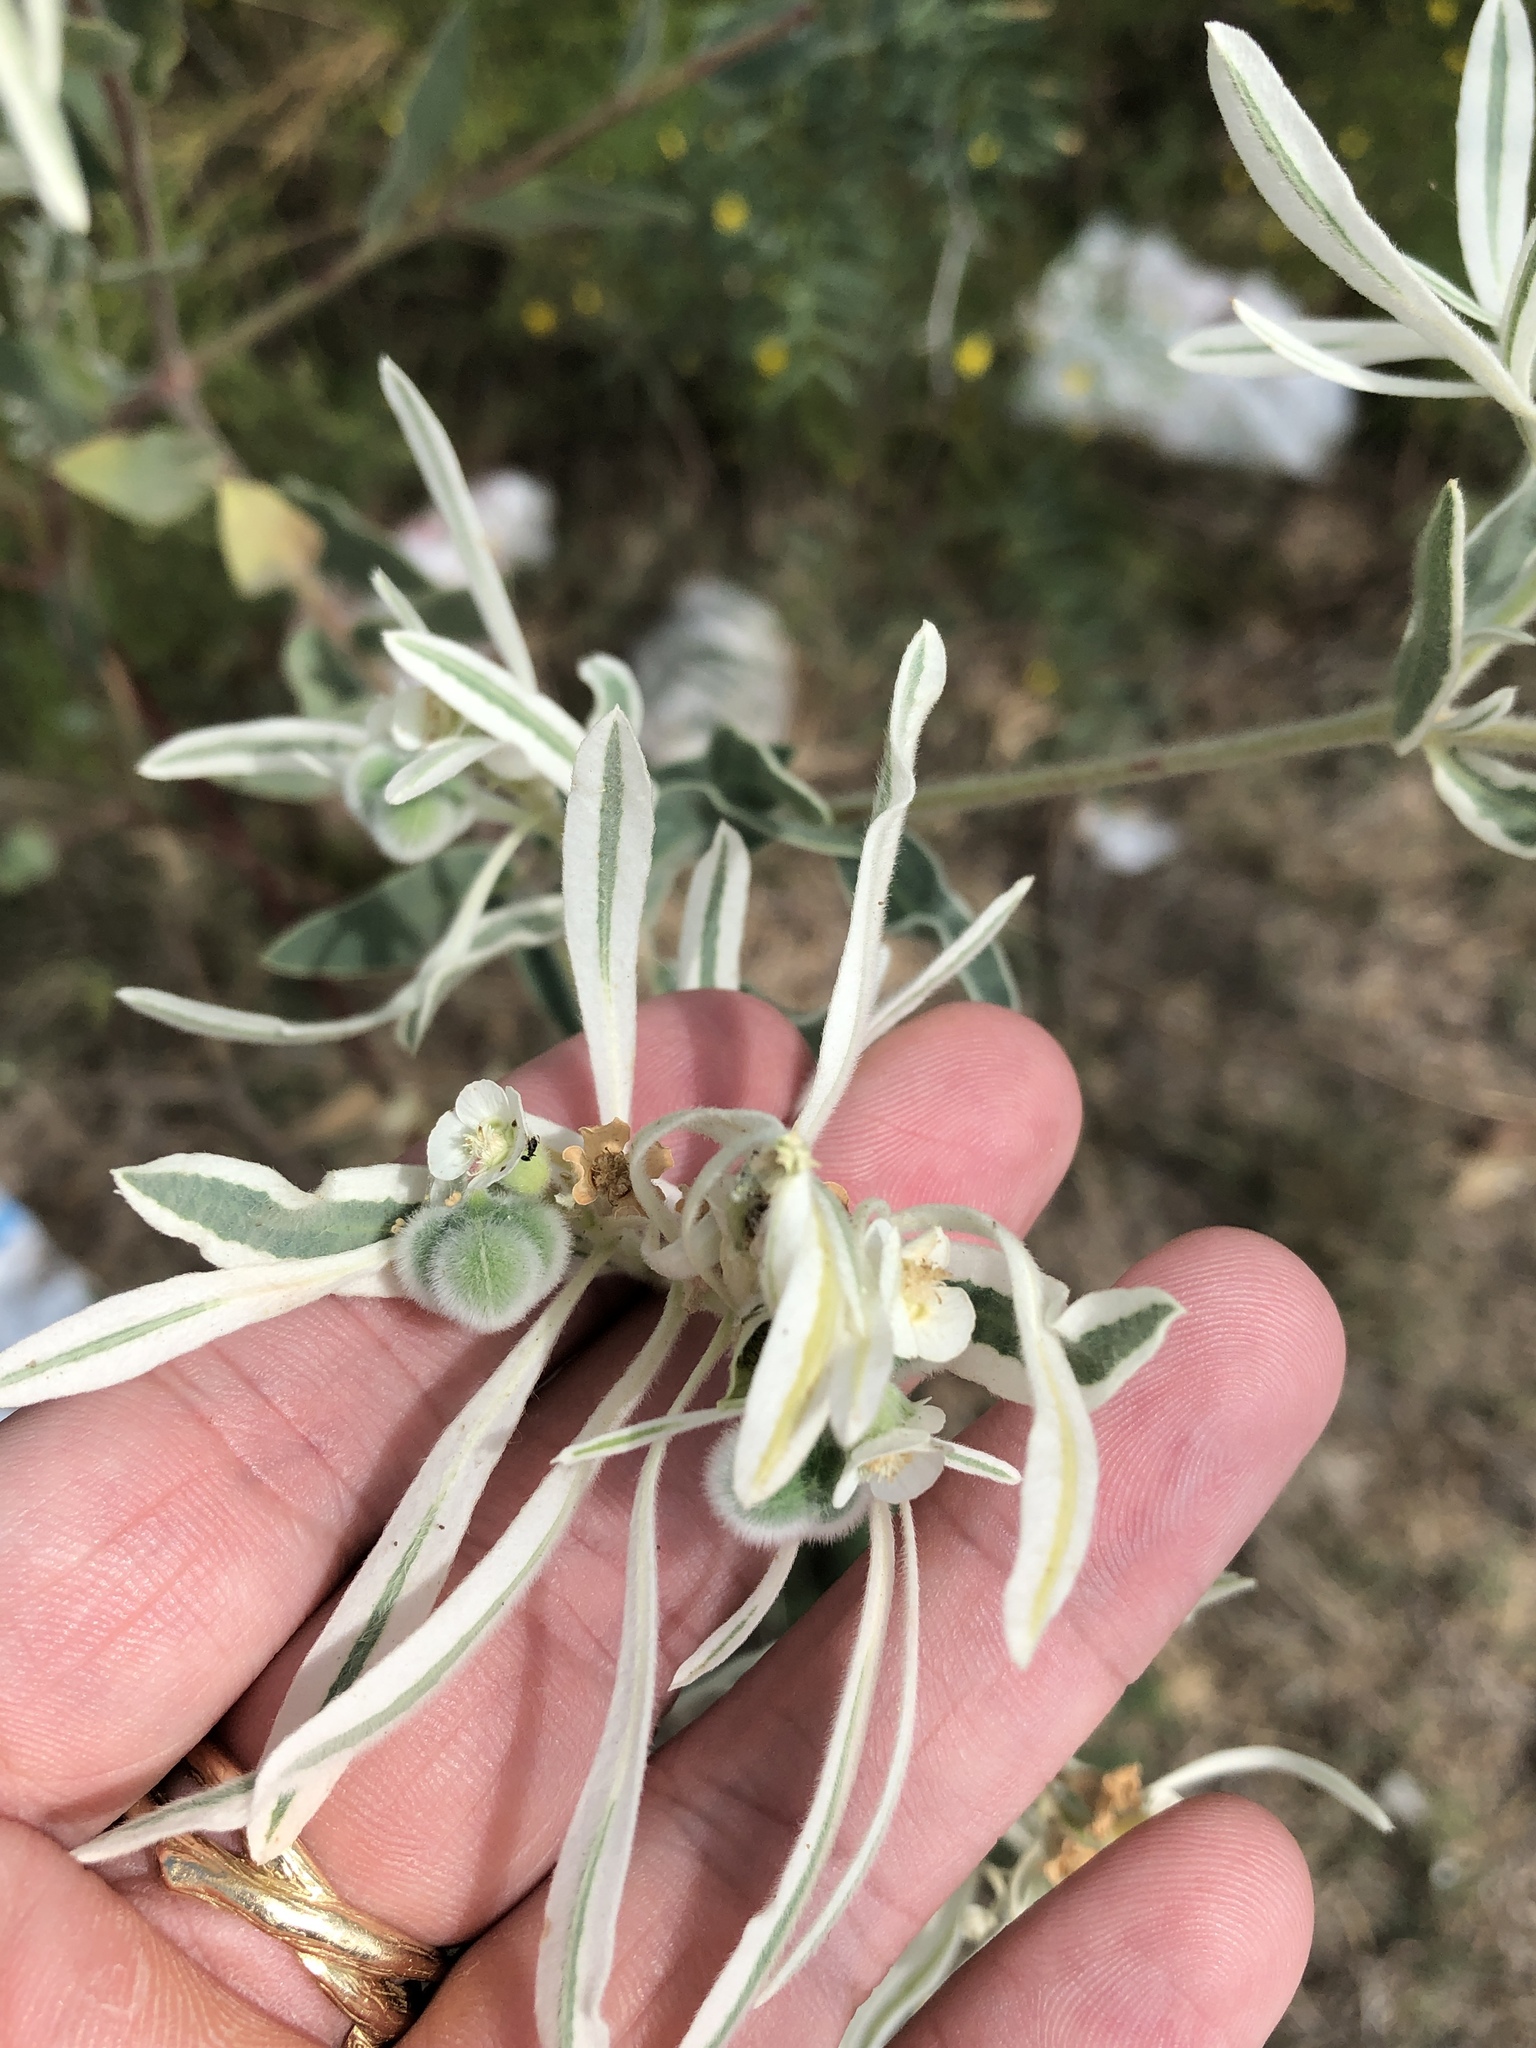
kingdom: Plantae
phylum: Tracheophyta
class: Magnoliopsida
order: Malpighiales
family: Euphorbiaceae
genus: Euphorbia
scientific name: Euphorbia bicolor
